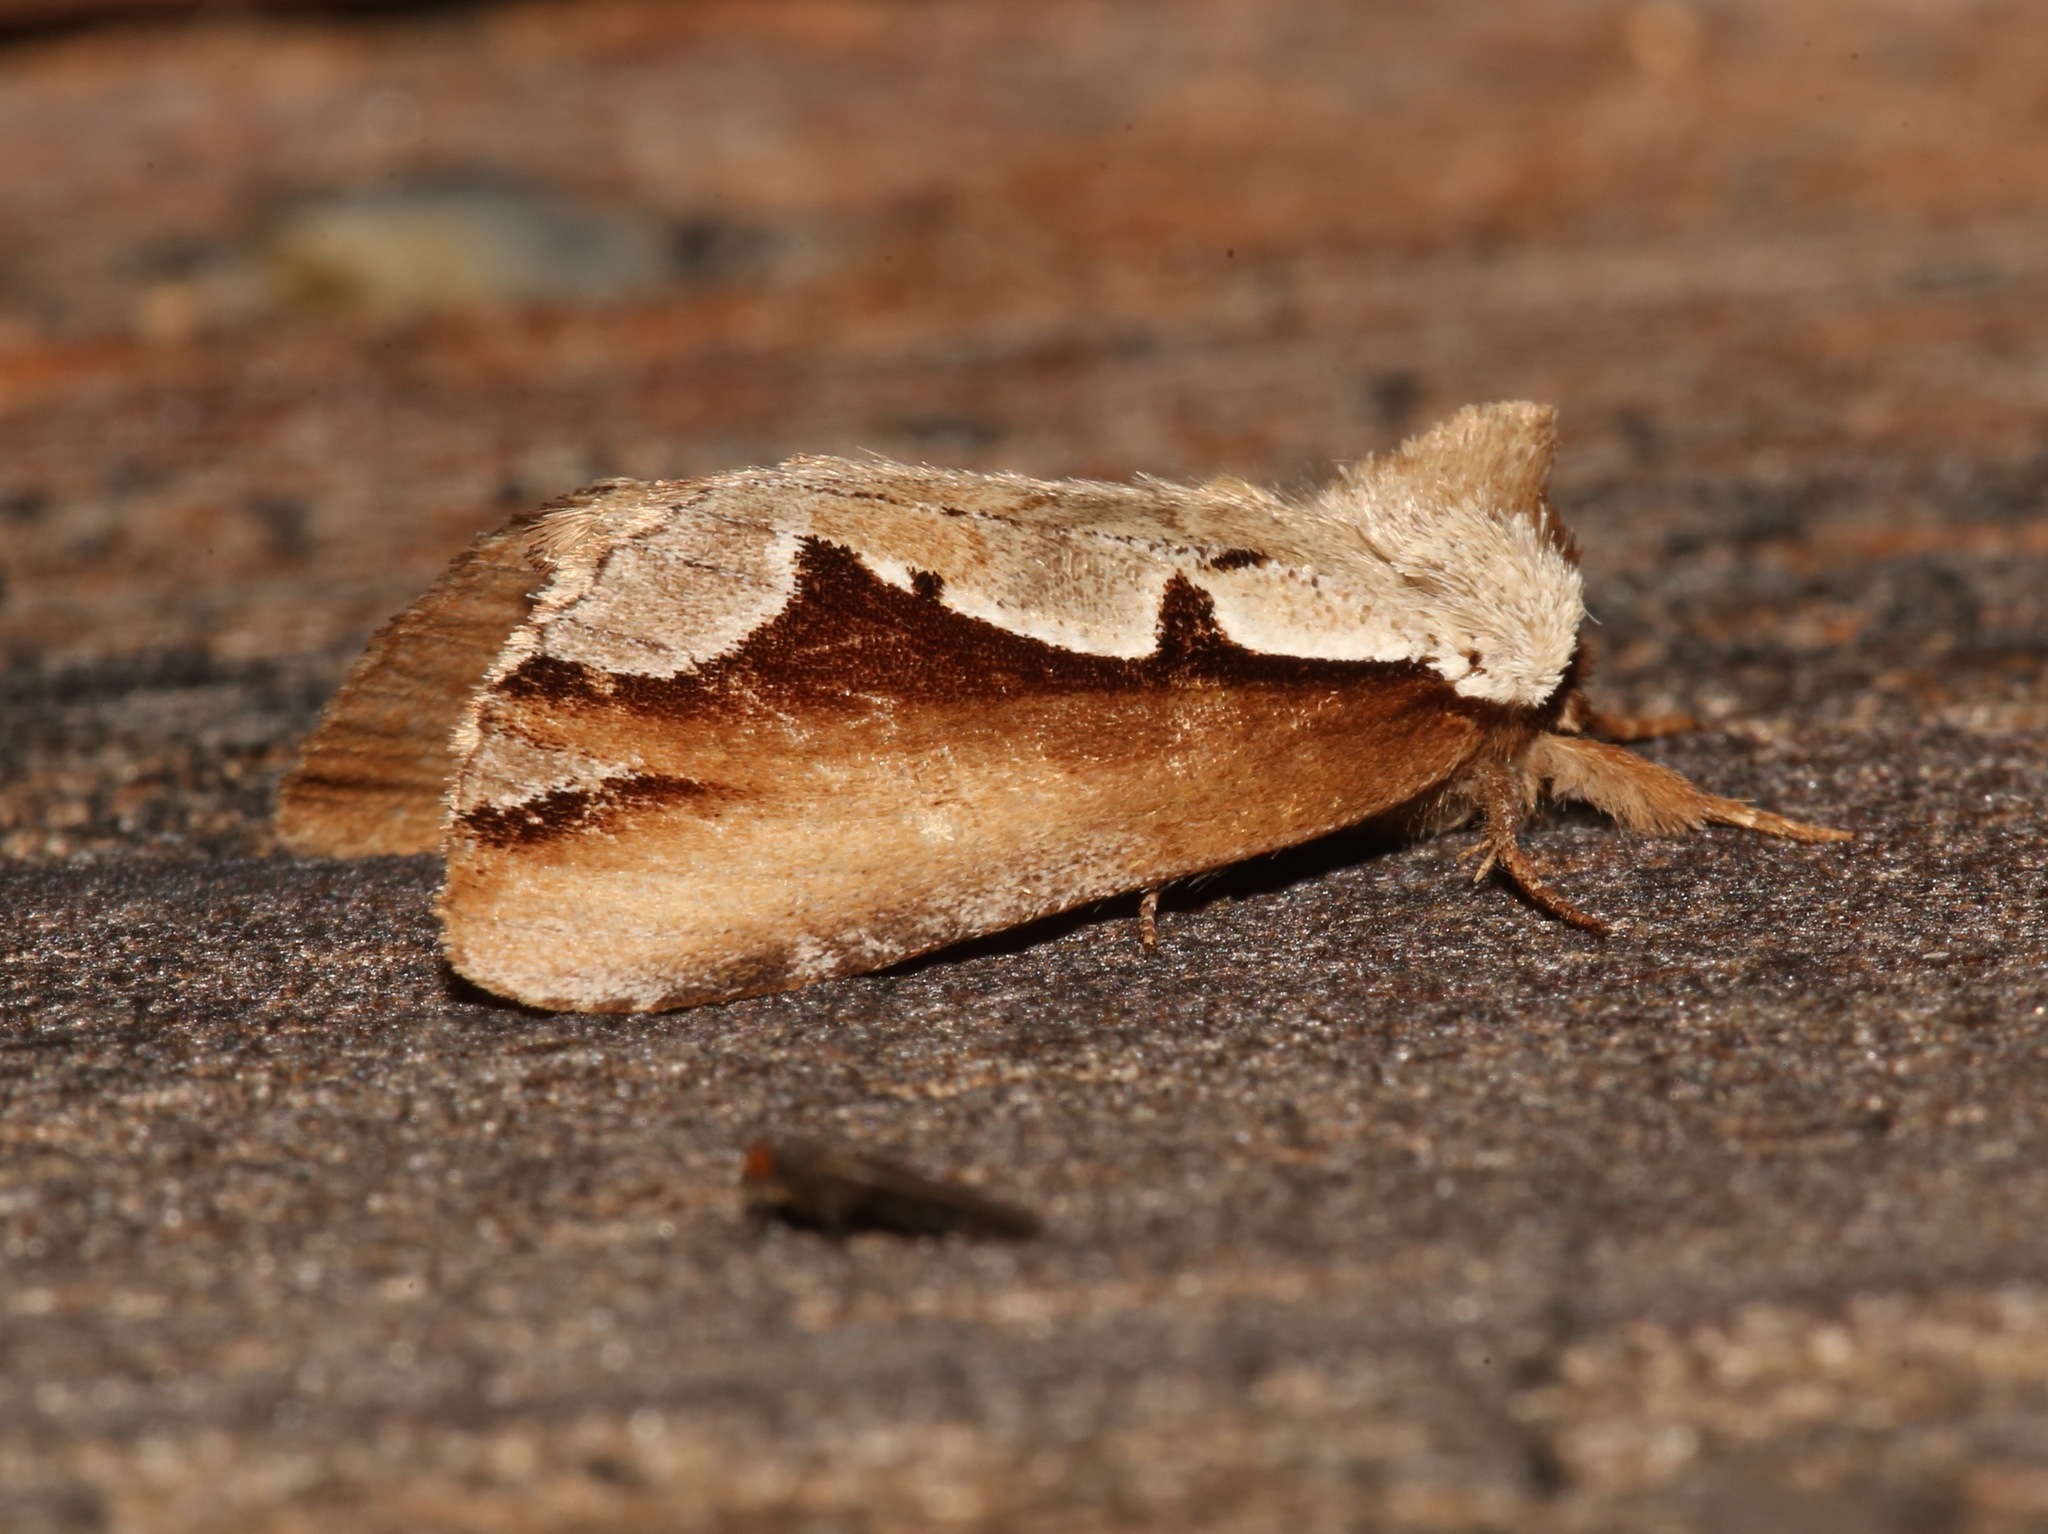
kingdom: Animalia
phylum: Arthropoda
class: Insecta
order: Lepidoptera
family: Notodontidae
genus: Nerice
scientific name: Nerice bidentata
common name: Double-toothed prominent
